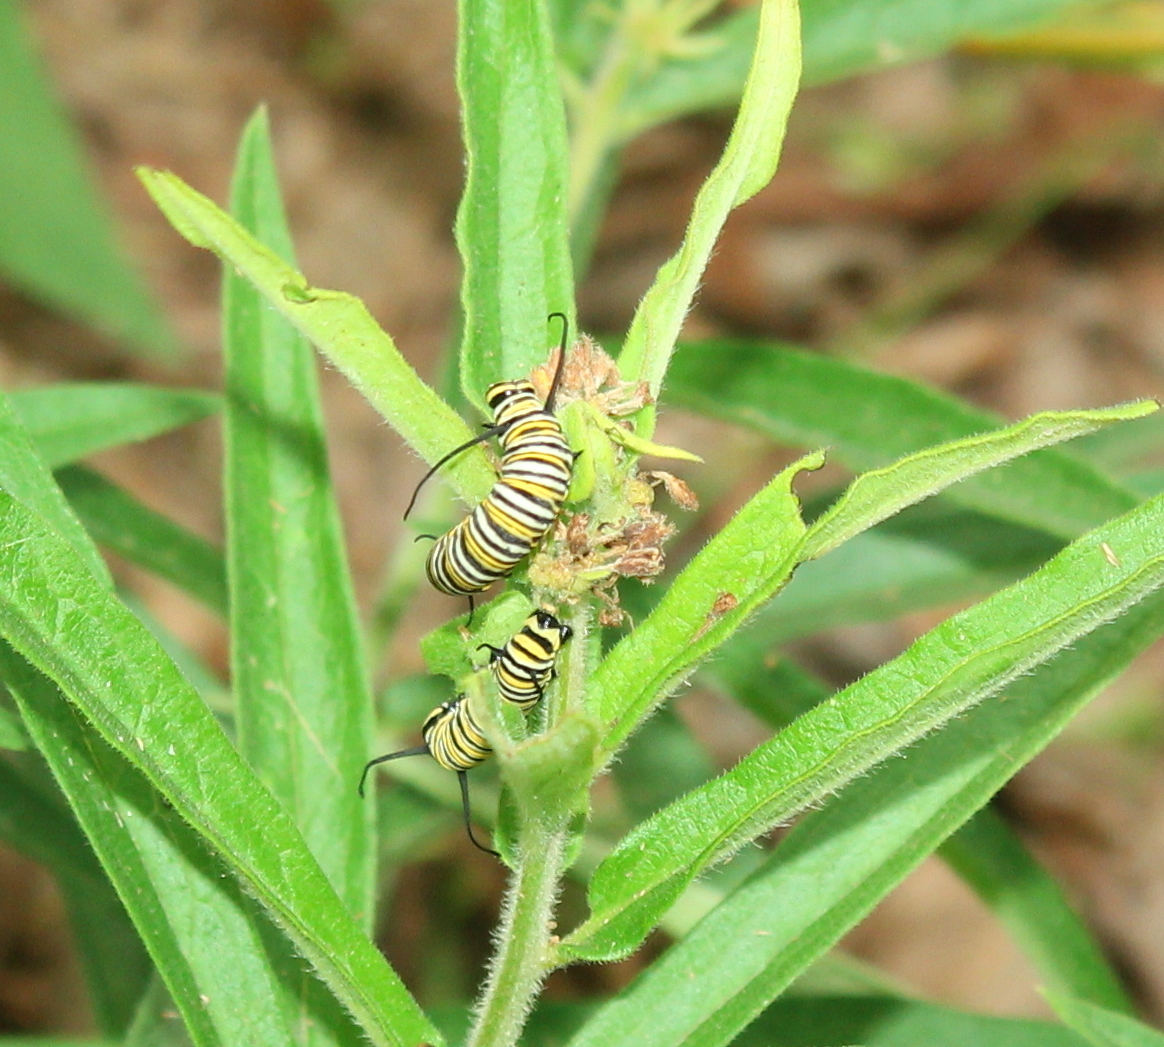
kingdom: Animalia
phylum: Arthropoda
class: Insecta
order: Lepidoptera
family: Nymphalidae
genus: Danaus
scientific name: Danaus plexippus
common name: Monarch
